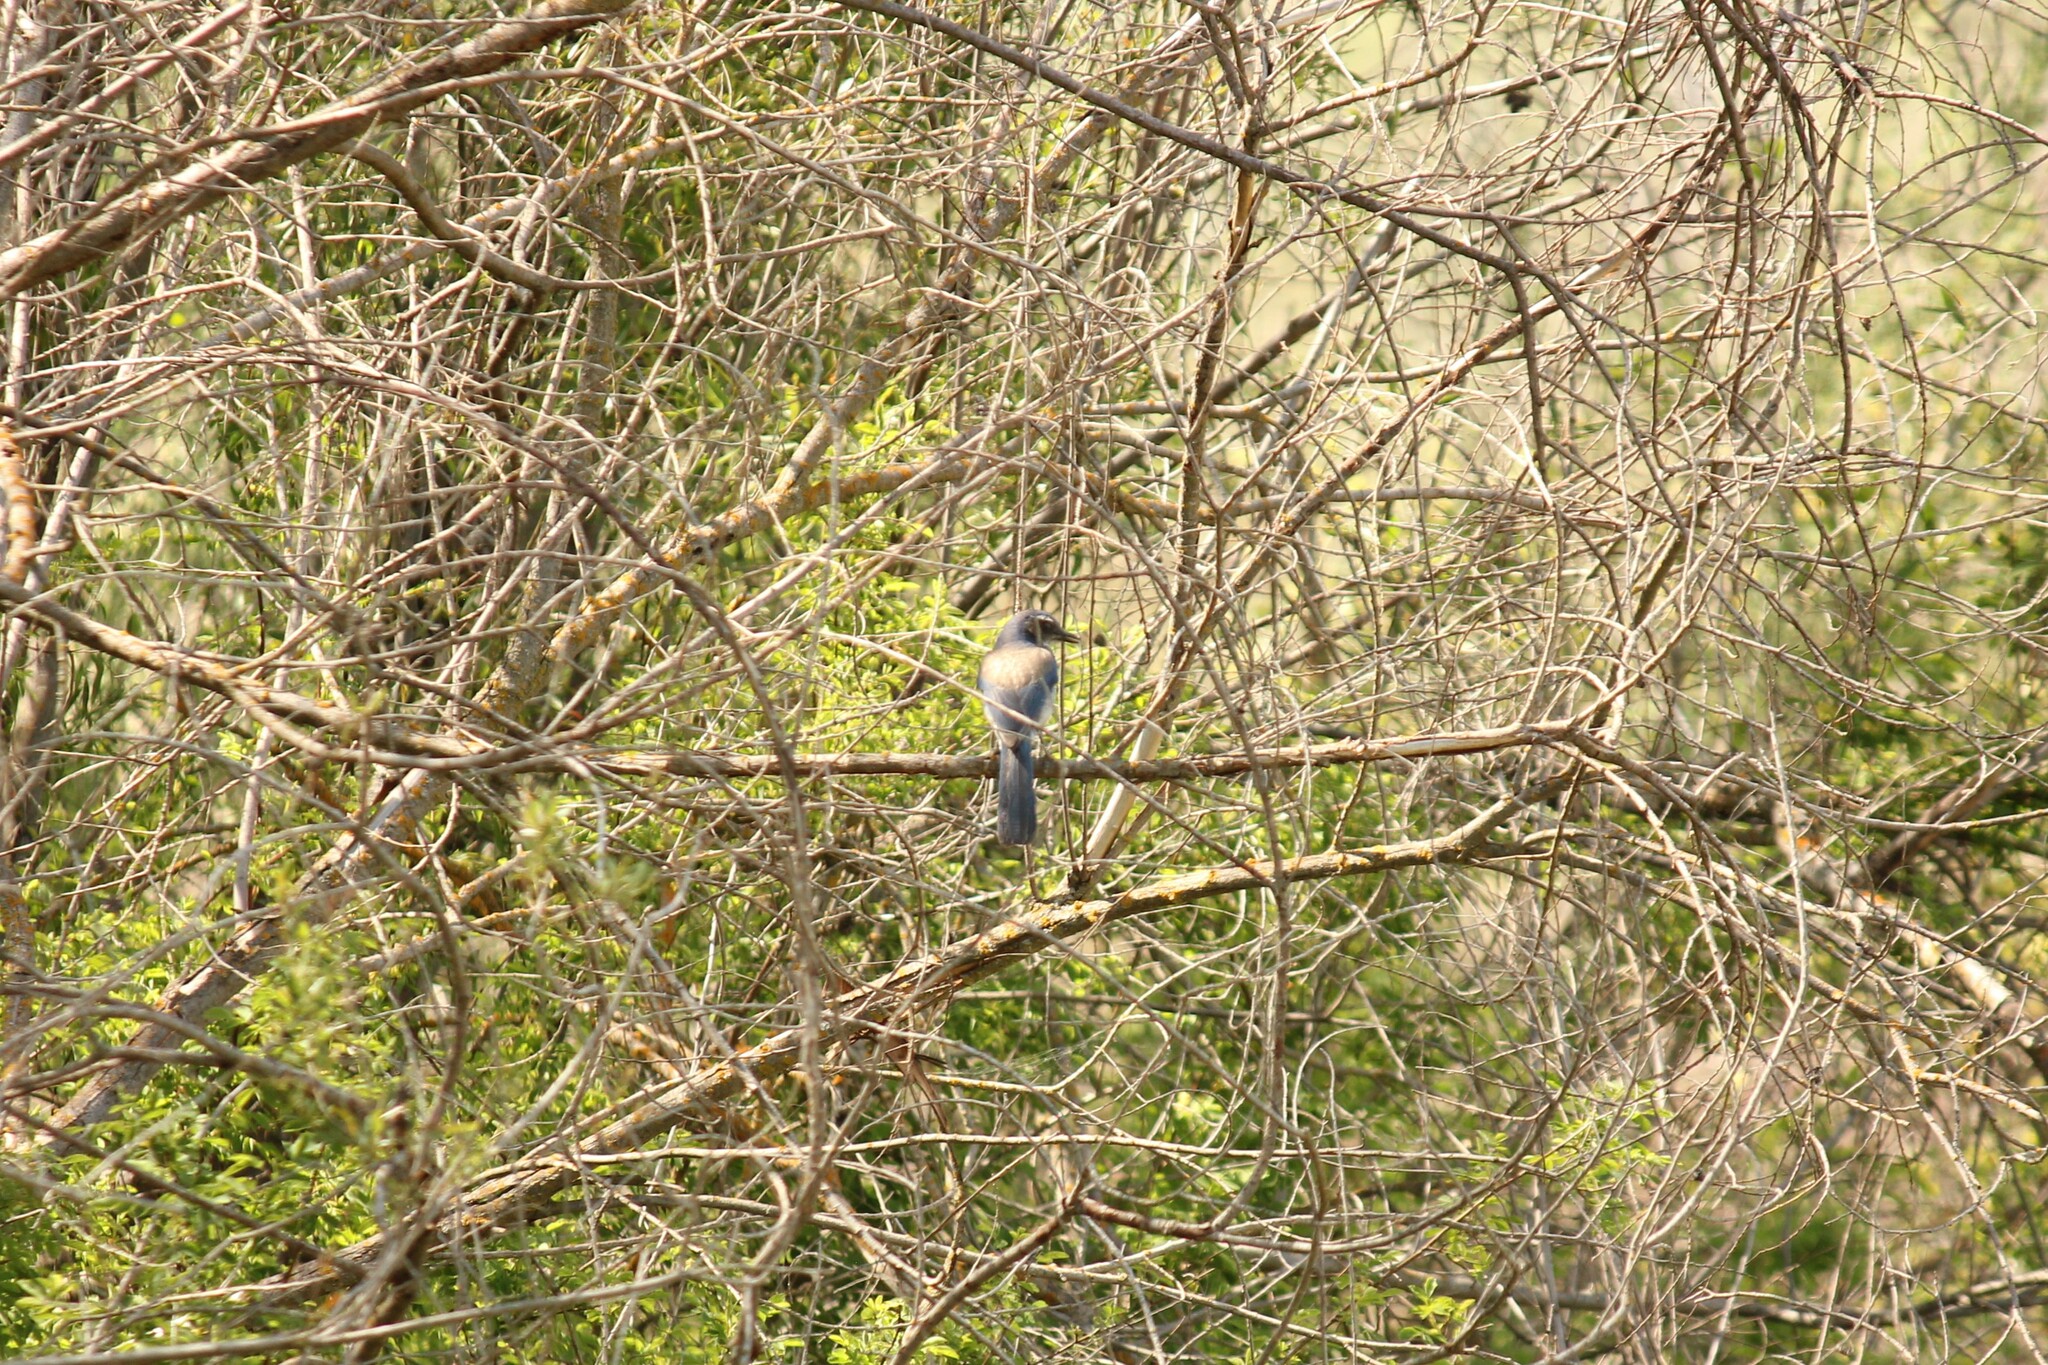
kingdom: Animalia
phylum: Chordata
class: Aves
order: Passeriformes
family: Corvidae
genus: Aphelocoma
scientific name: Aphelocoma californica
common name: California scrub-jay
